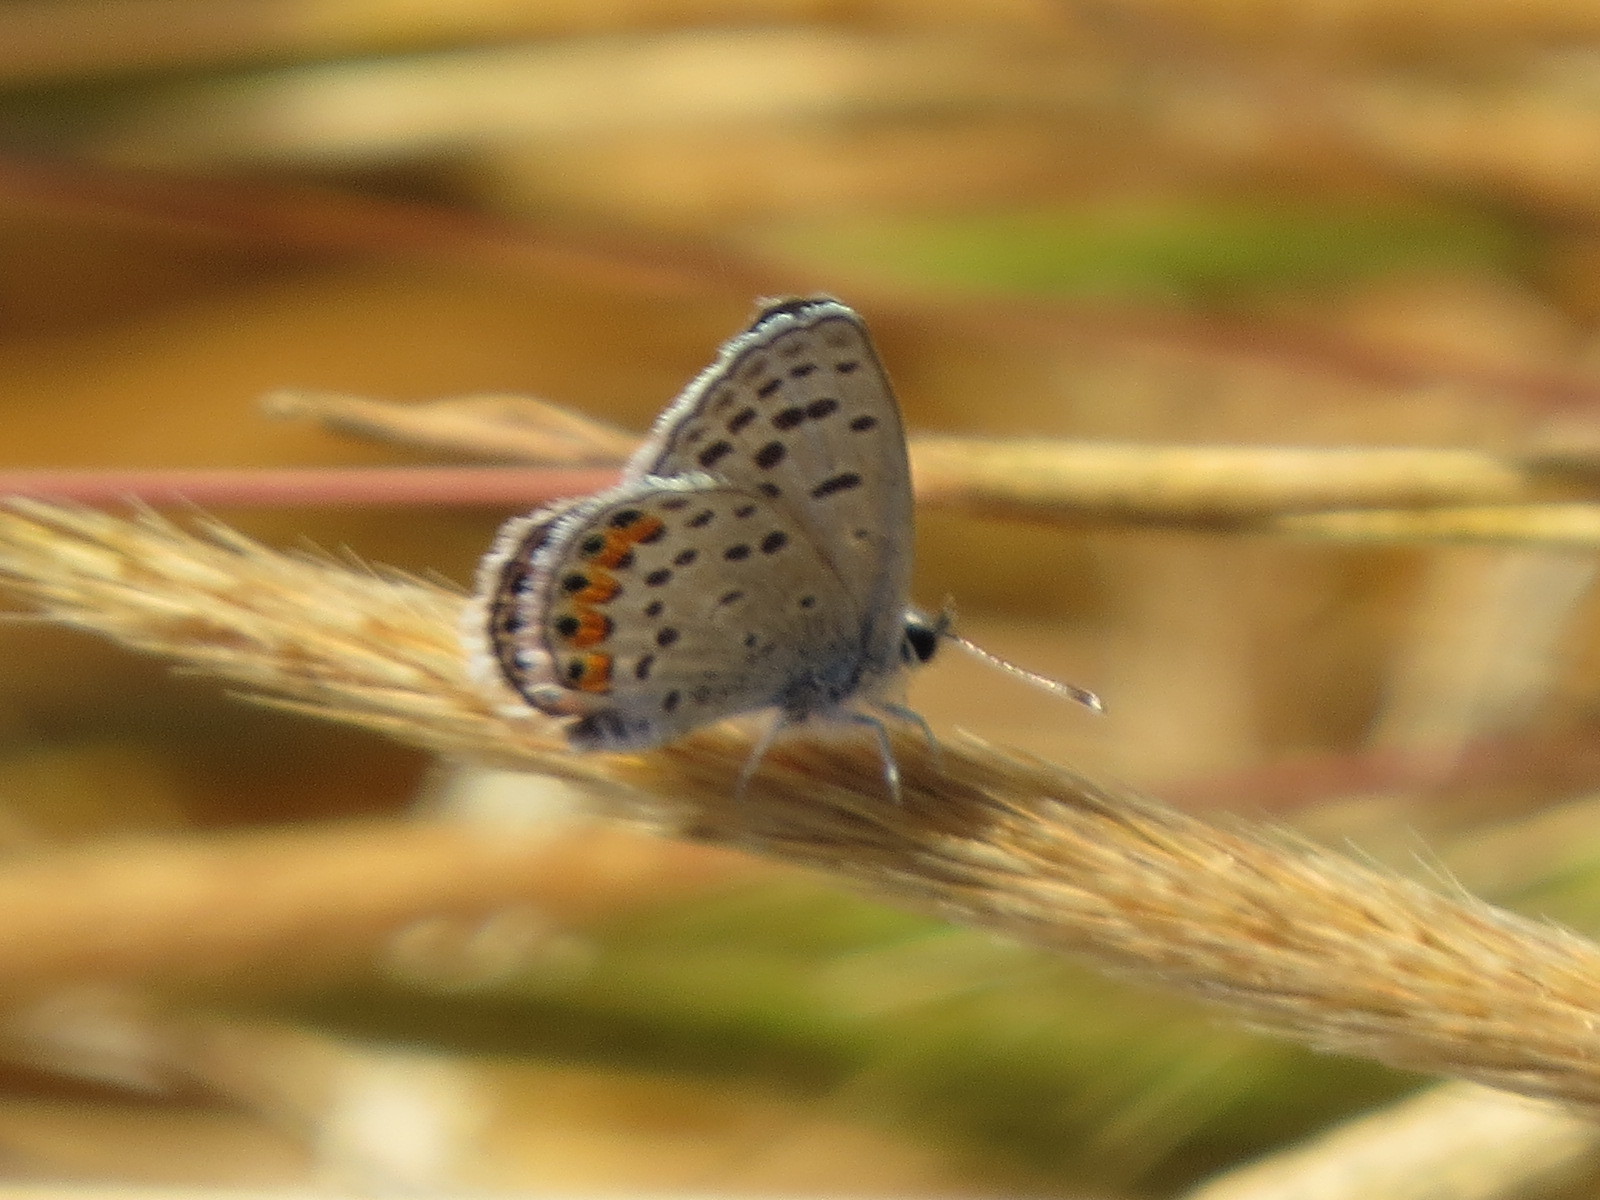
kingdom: Animalia
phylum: Arthropoda
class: Insecta
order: Lepidoptera
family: Lycaenidae
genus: Icaricia
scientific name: Icaricia acmon
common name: Acmon blue
